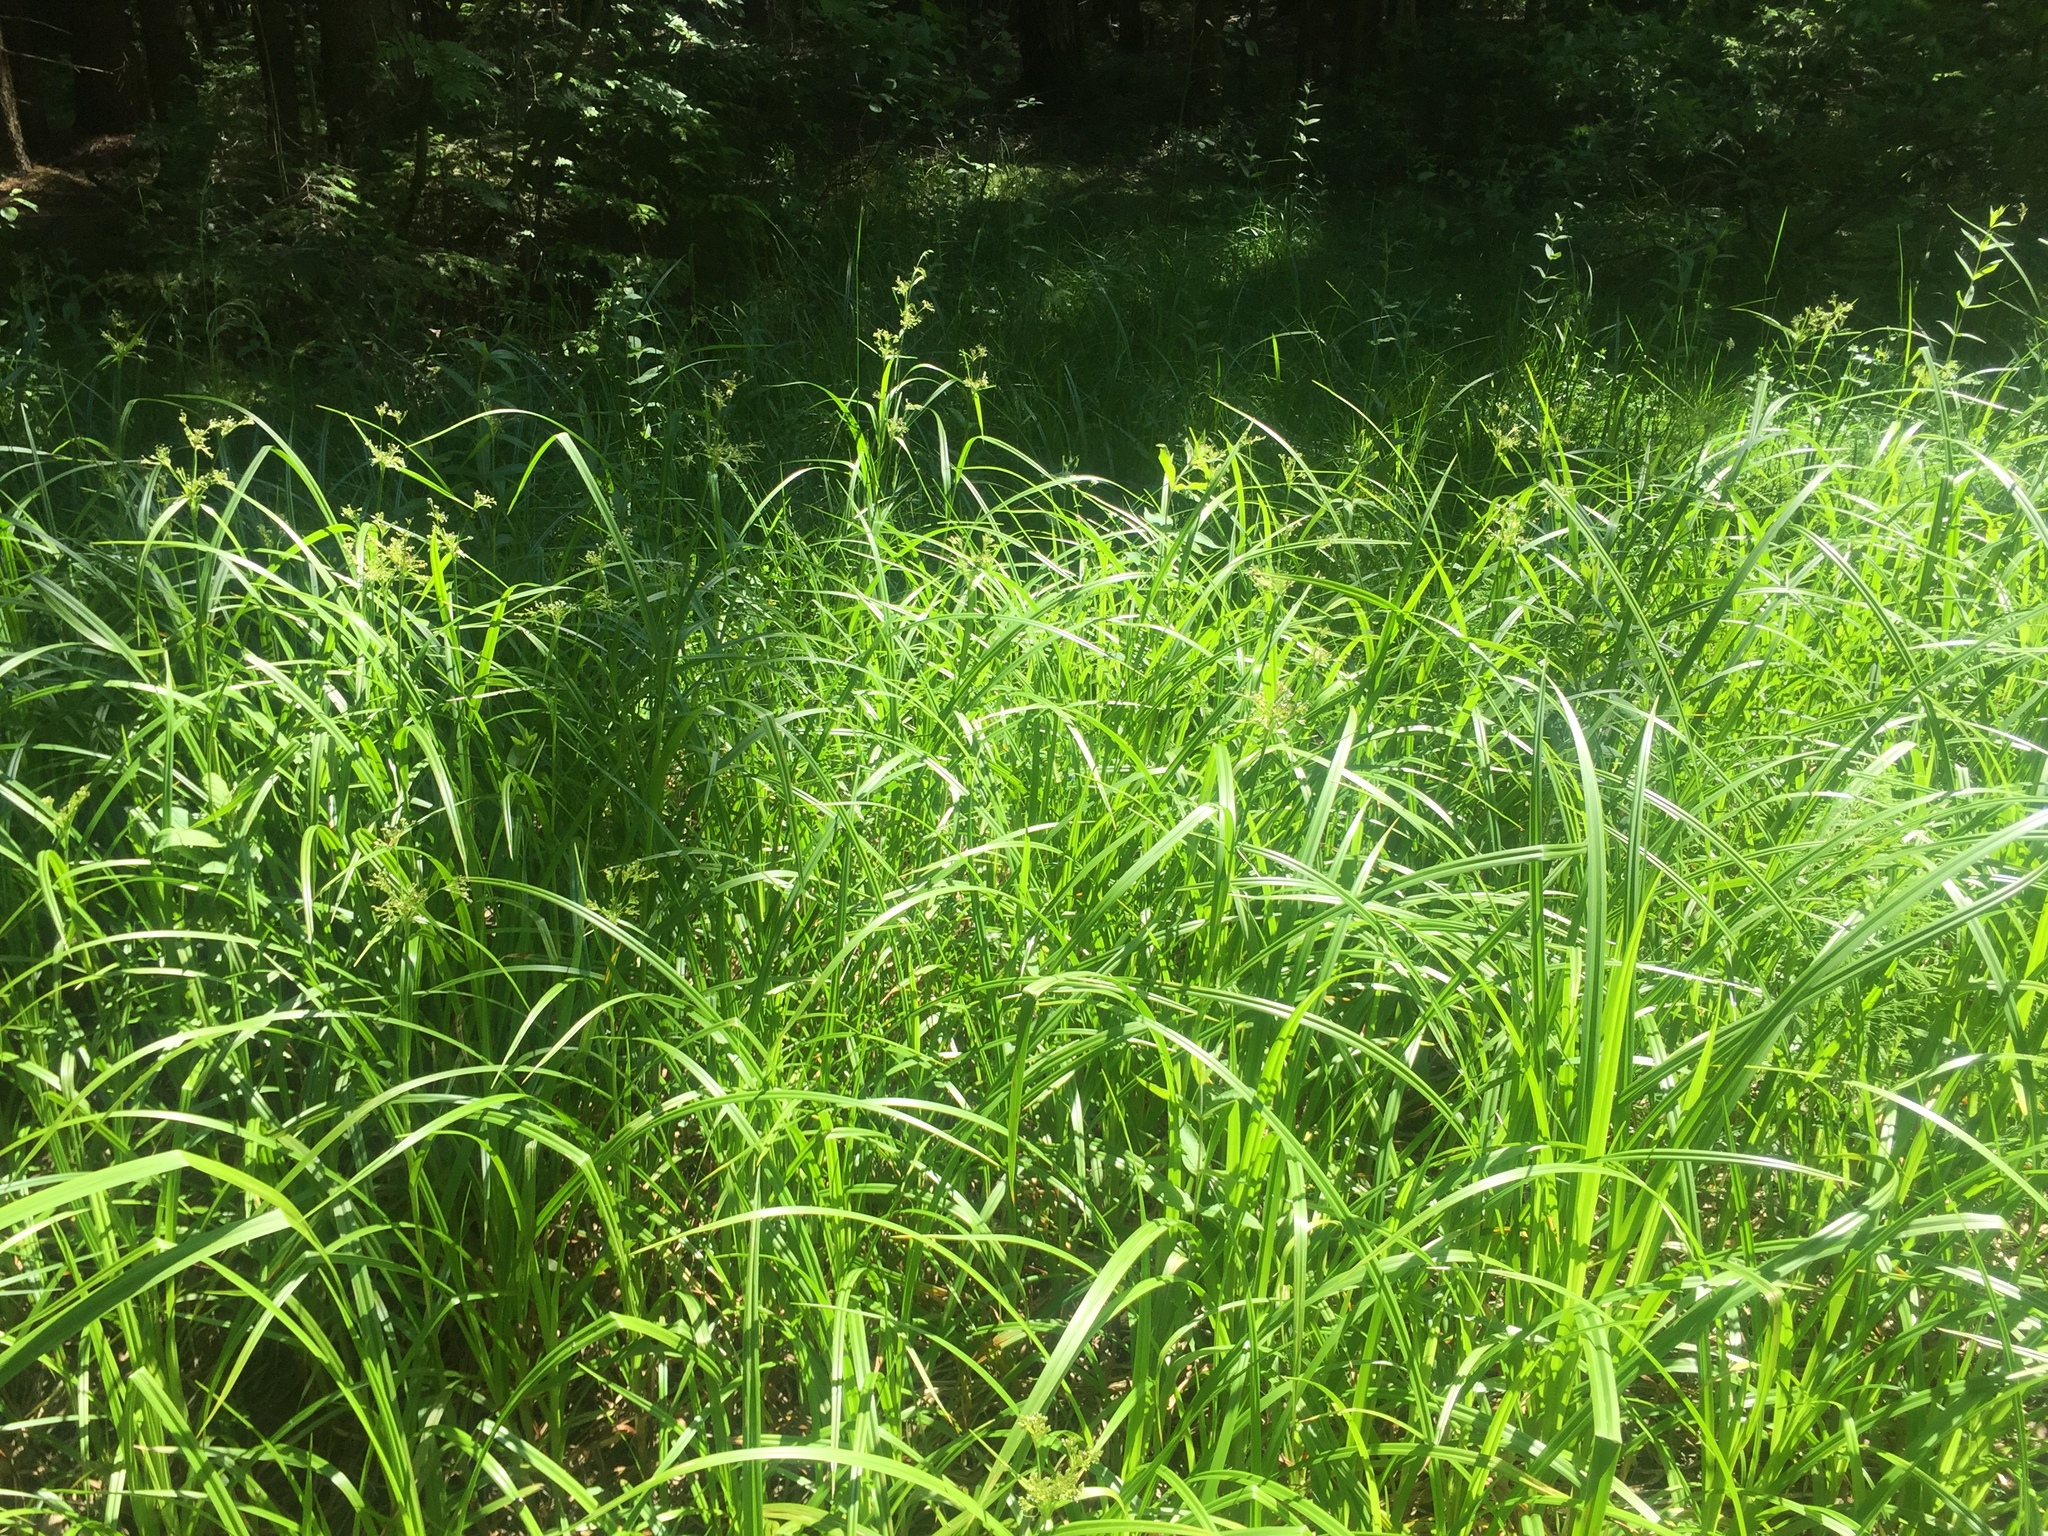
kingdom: Plantae
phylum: Tracheophyta
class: Liliopsida
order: Poales
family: Cyperaceae
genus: Scirpus
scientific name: Scirpus sylvaticus
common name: Wood club-rush
